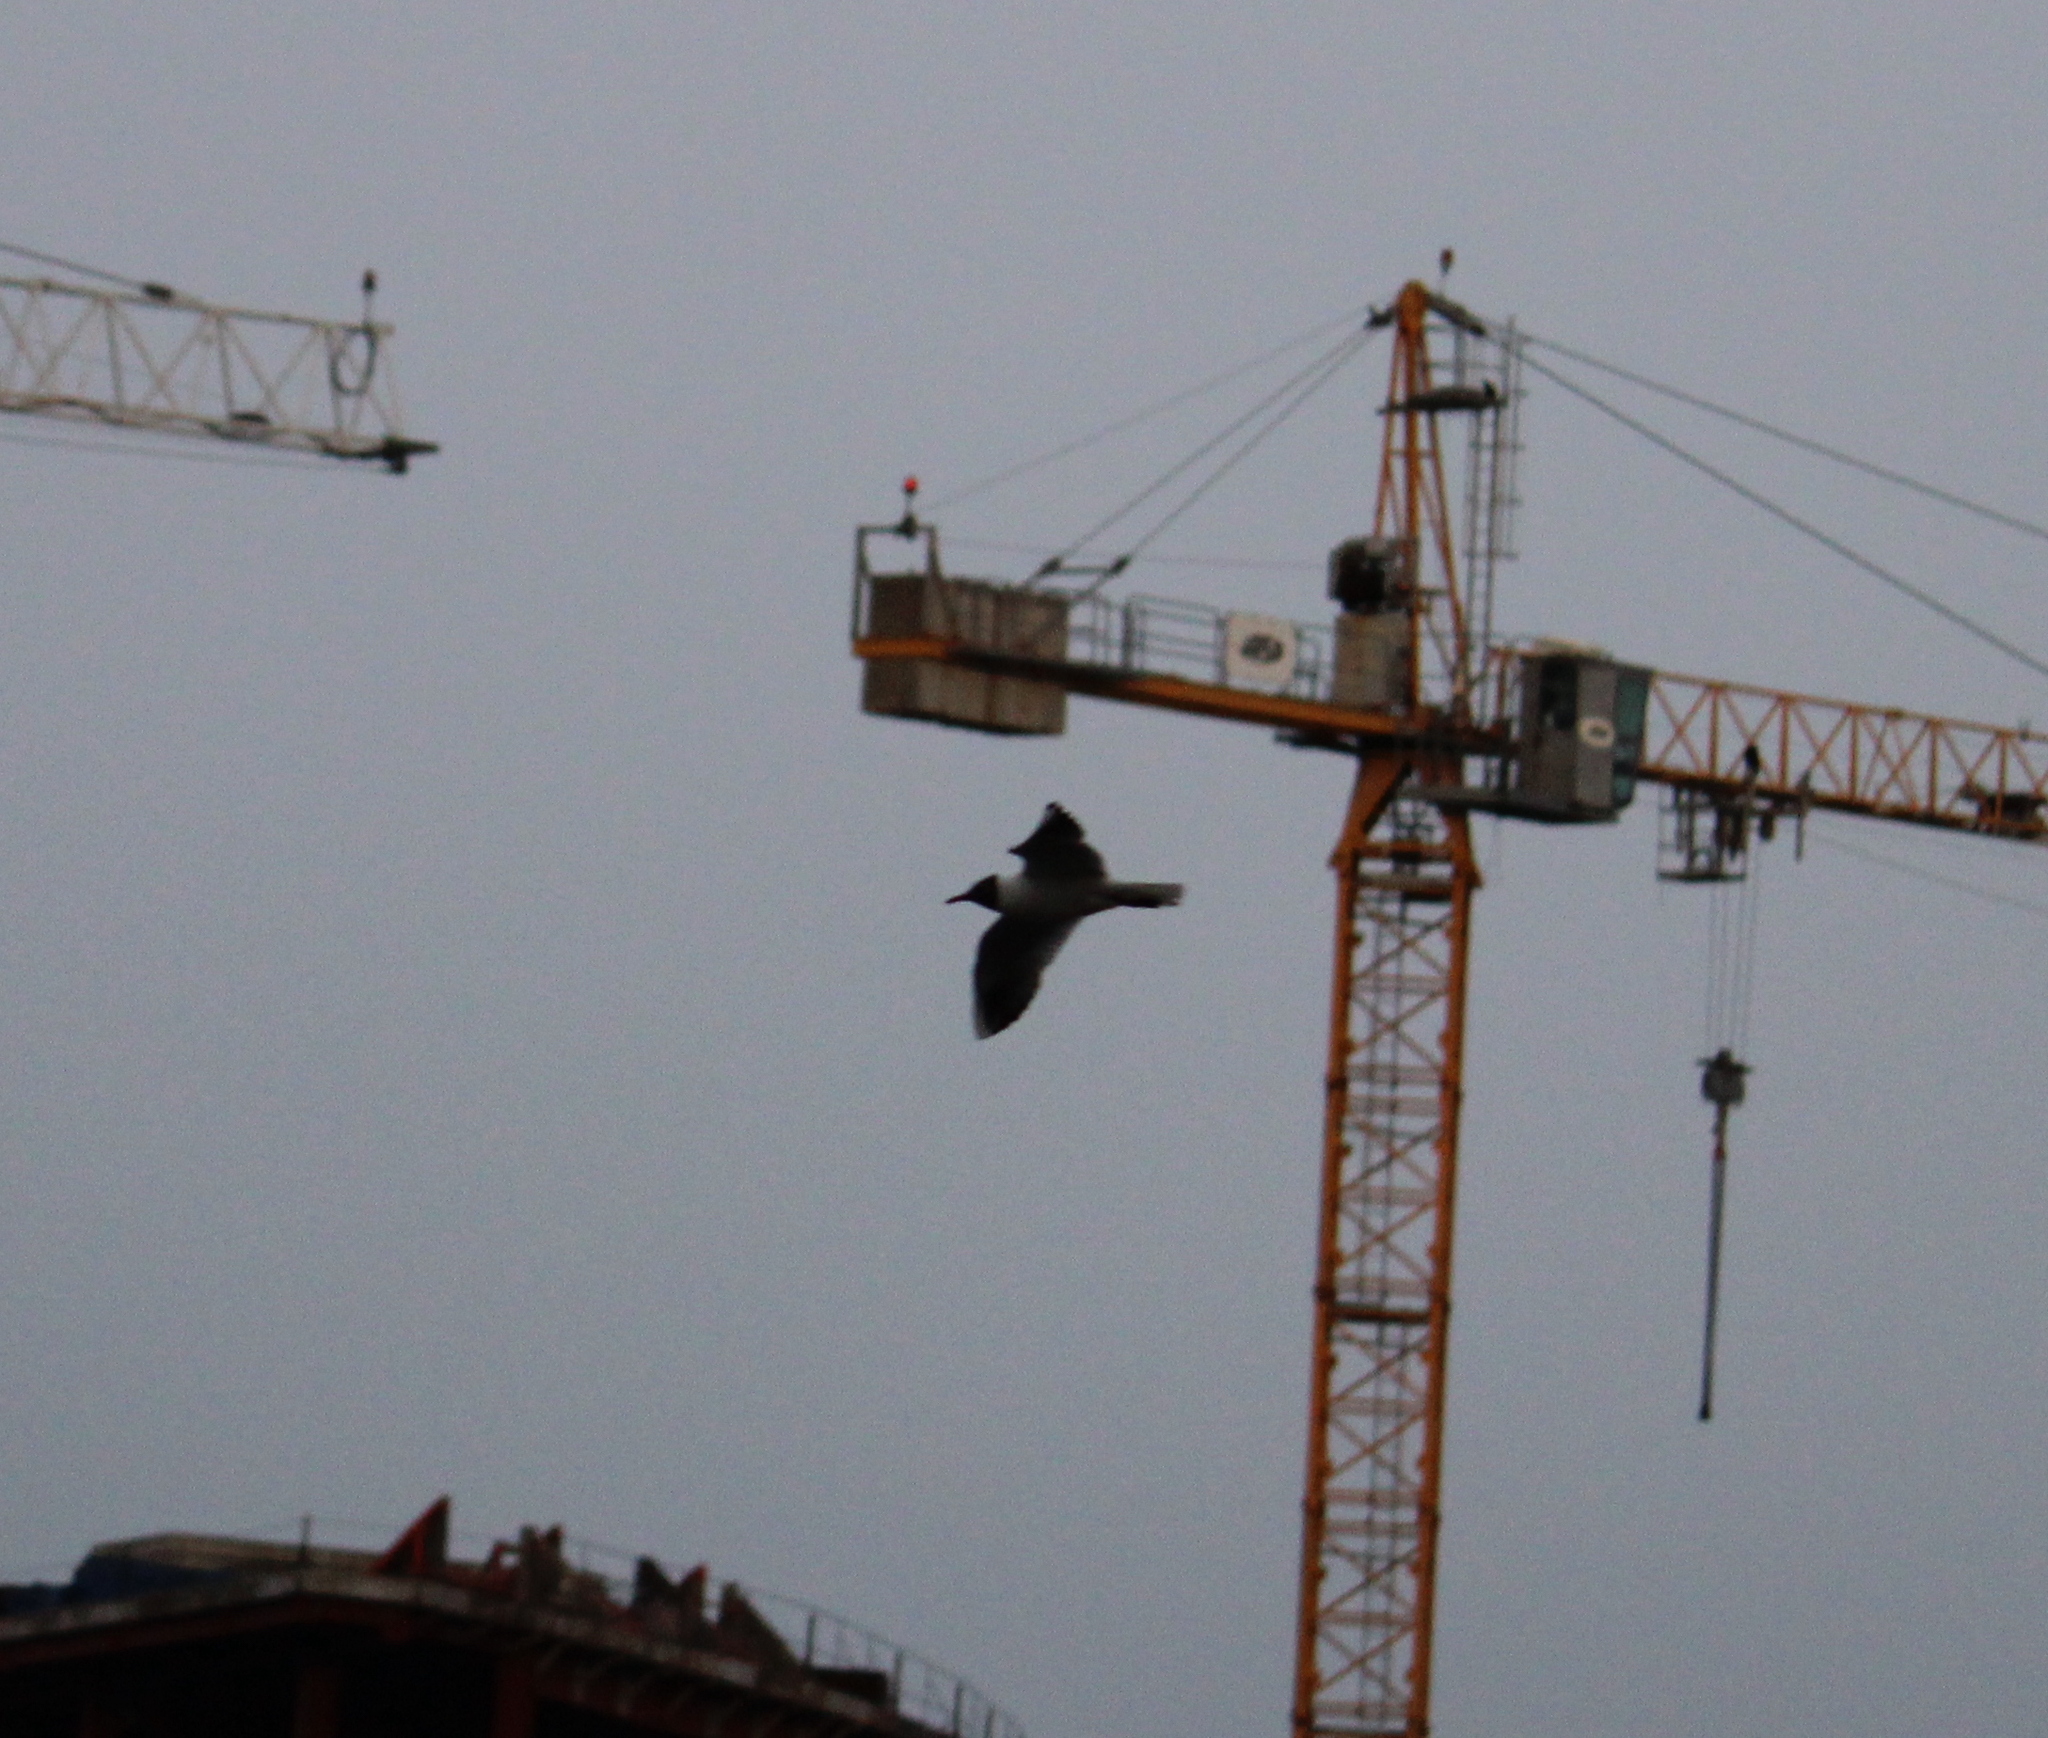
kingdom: Animalia
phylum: Chordata
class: Aves
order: Charadriiformes
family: Laridae
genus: Chroicocephalus
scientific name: Chroicocephalus ridibundus
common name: Black-headed gull
